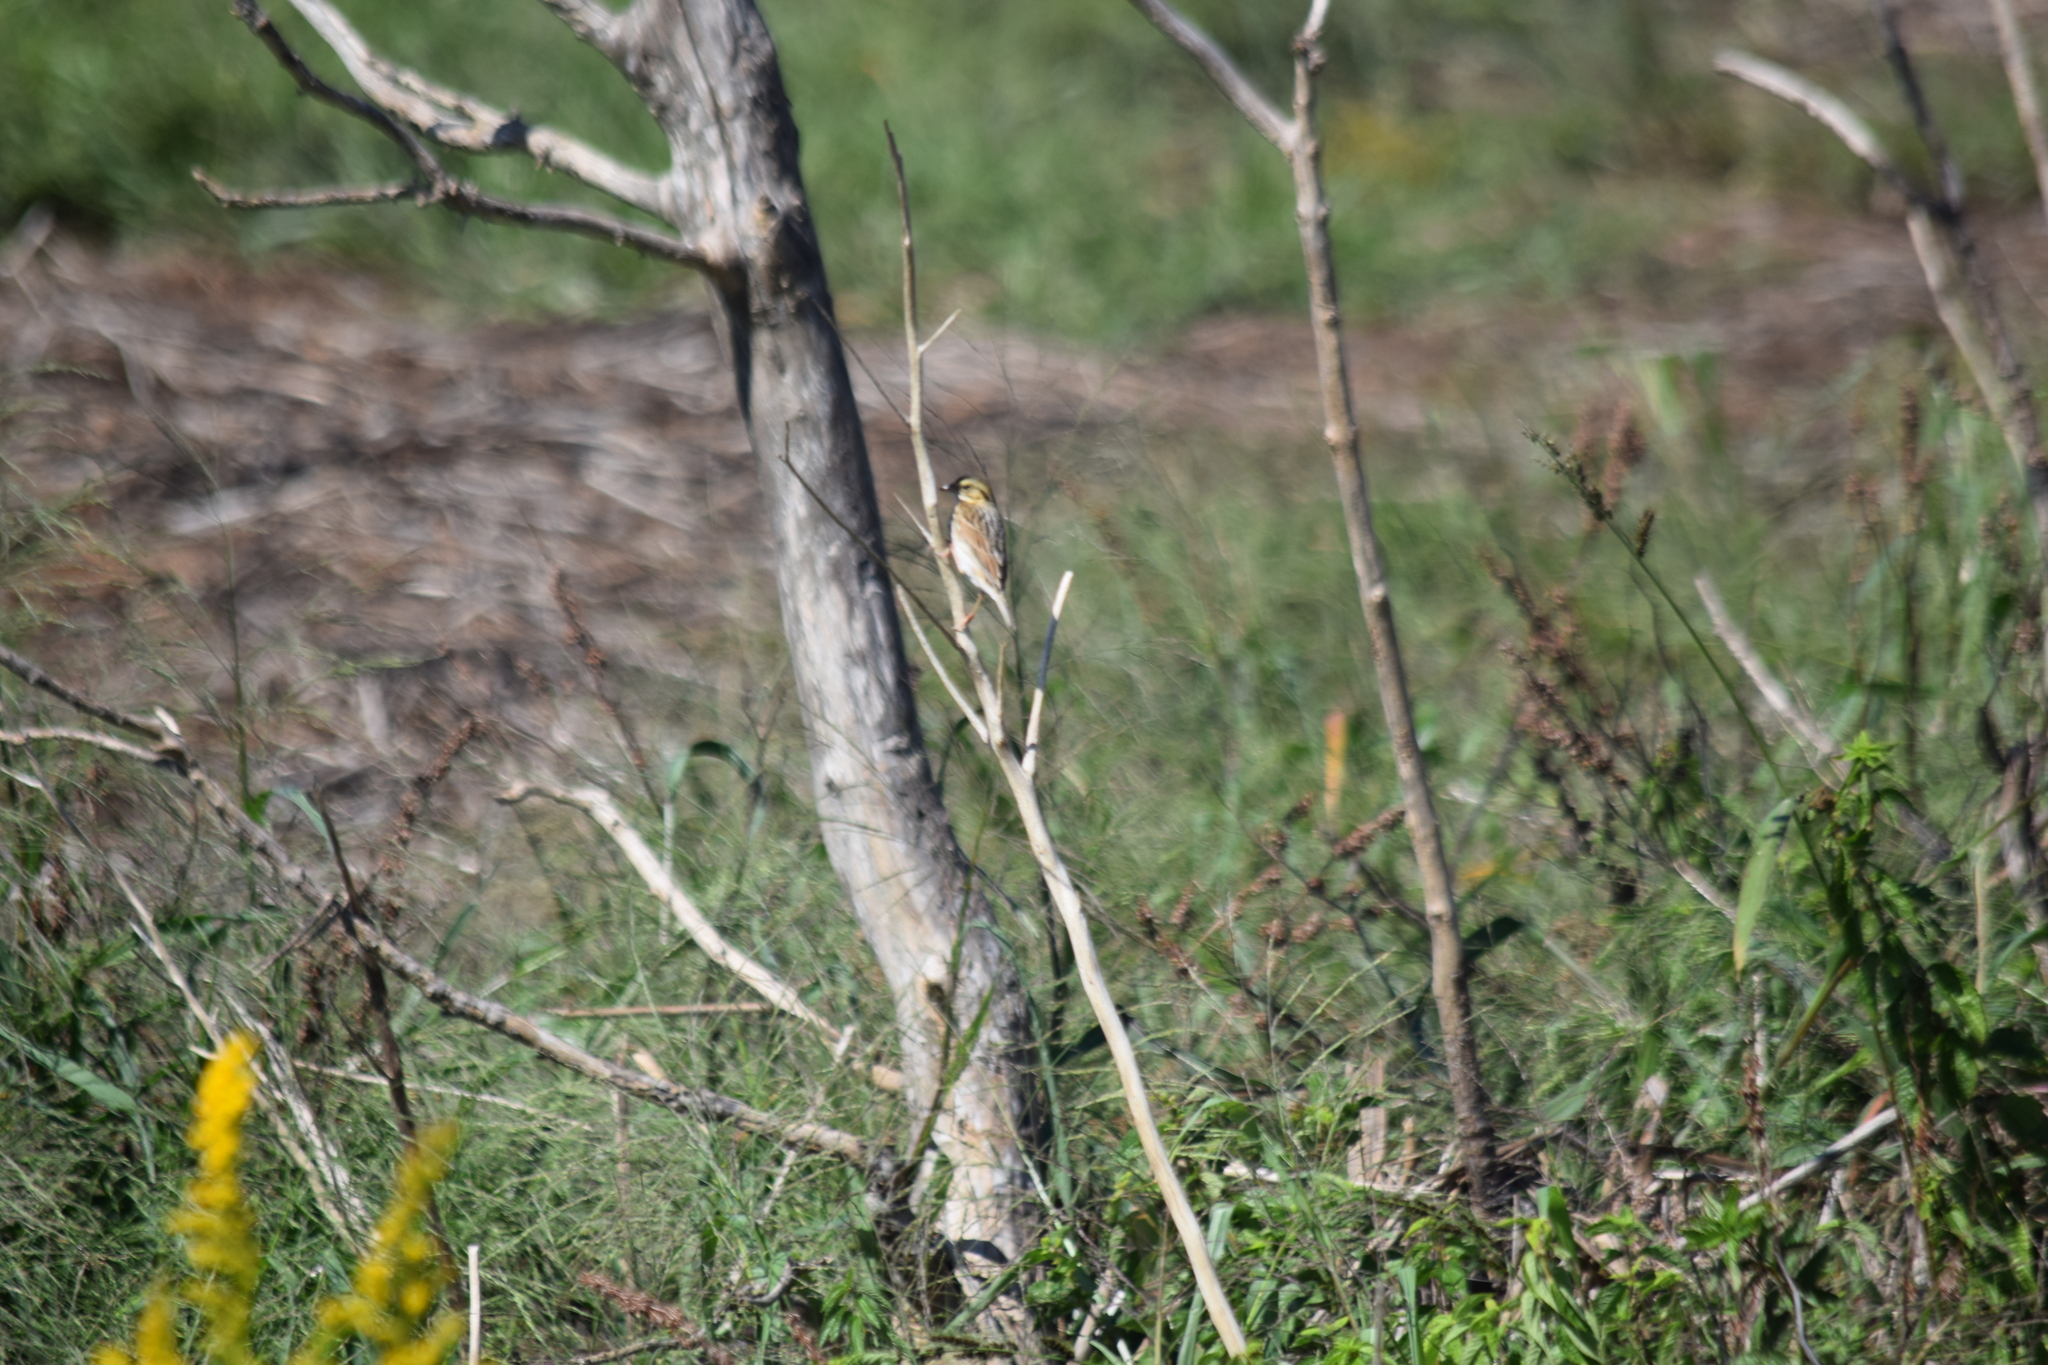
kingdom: Animalia
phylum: Chordata
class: Aves
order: Passeriformes
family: Passerellidae
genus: Passerculus
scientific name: Passerculus sandwichensis
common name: Savannah sparrow
